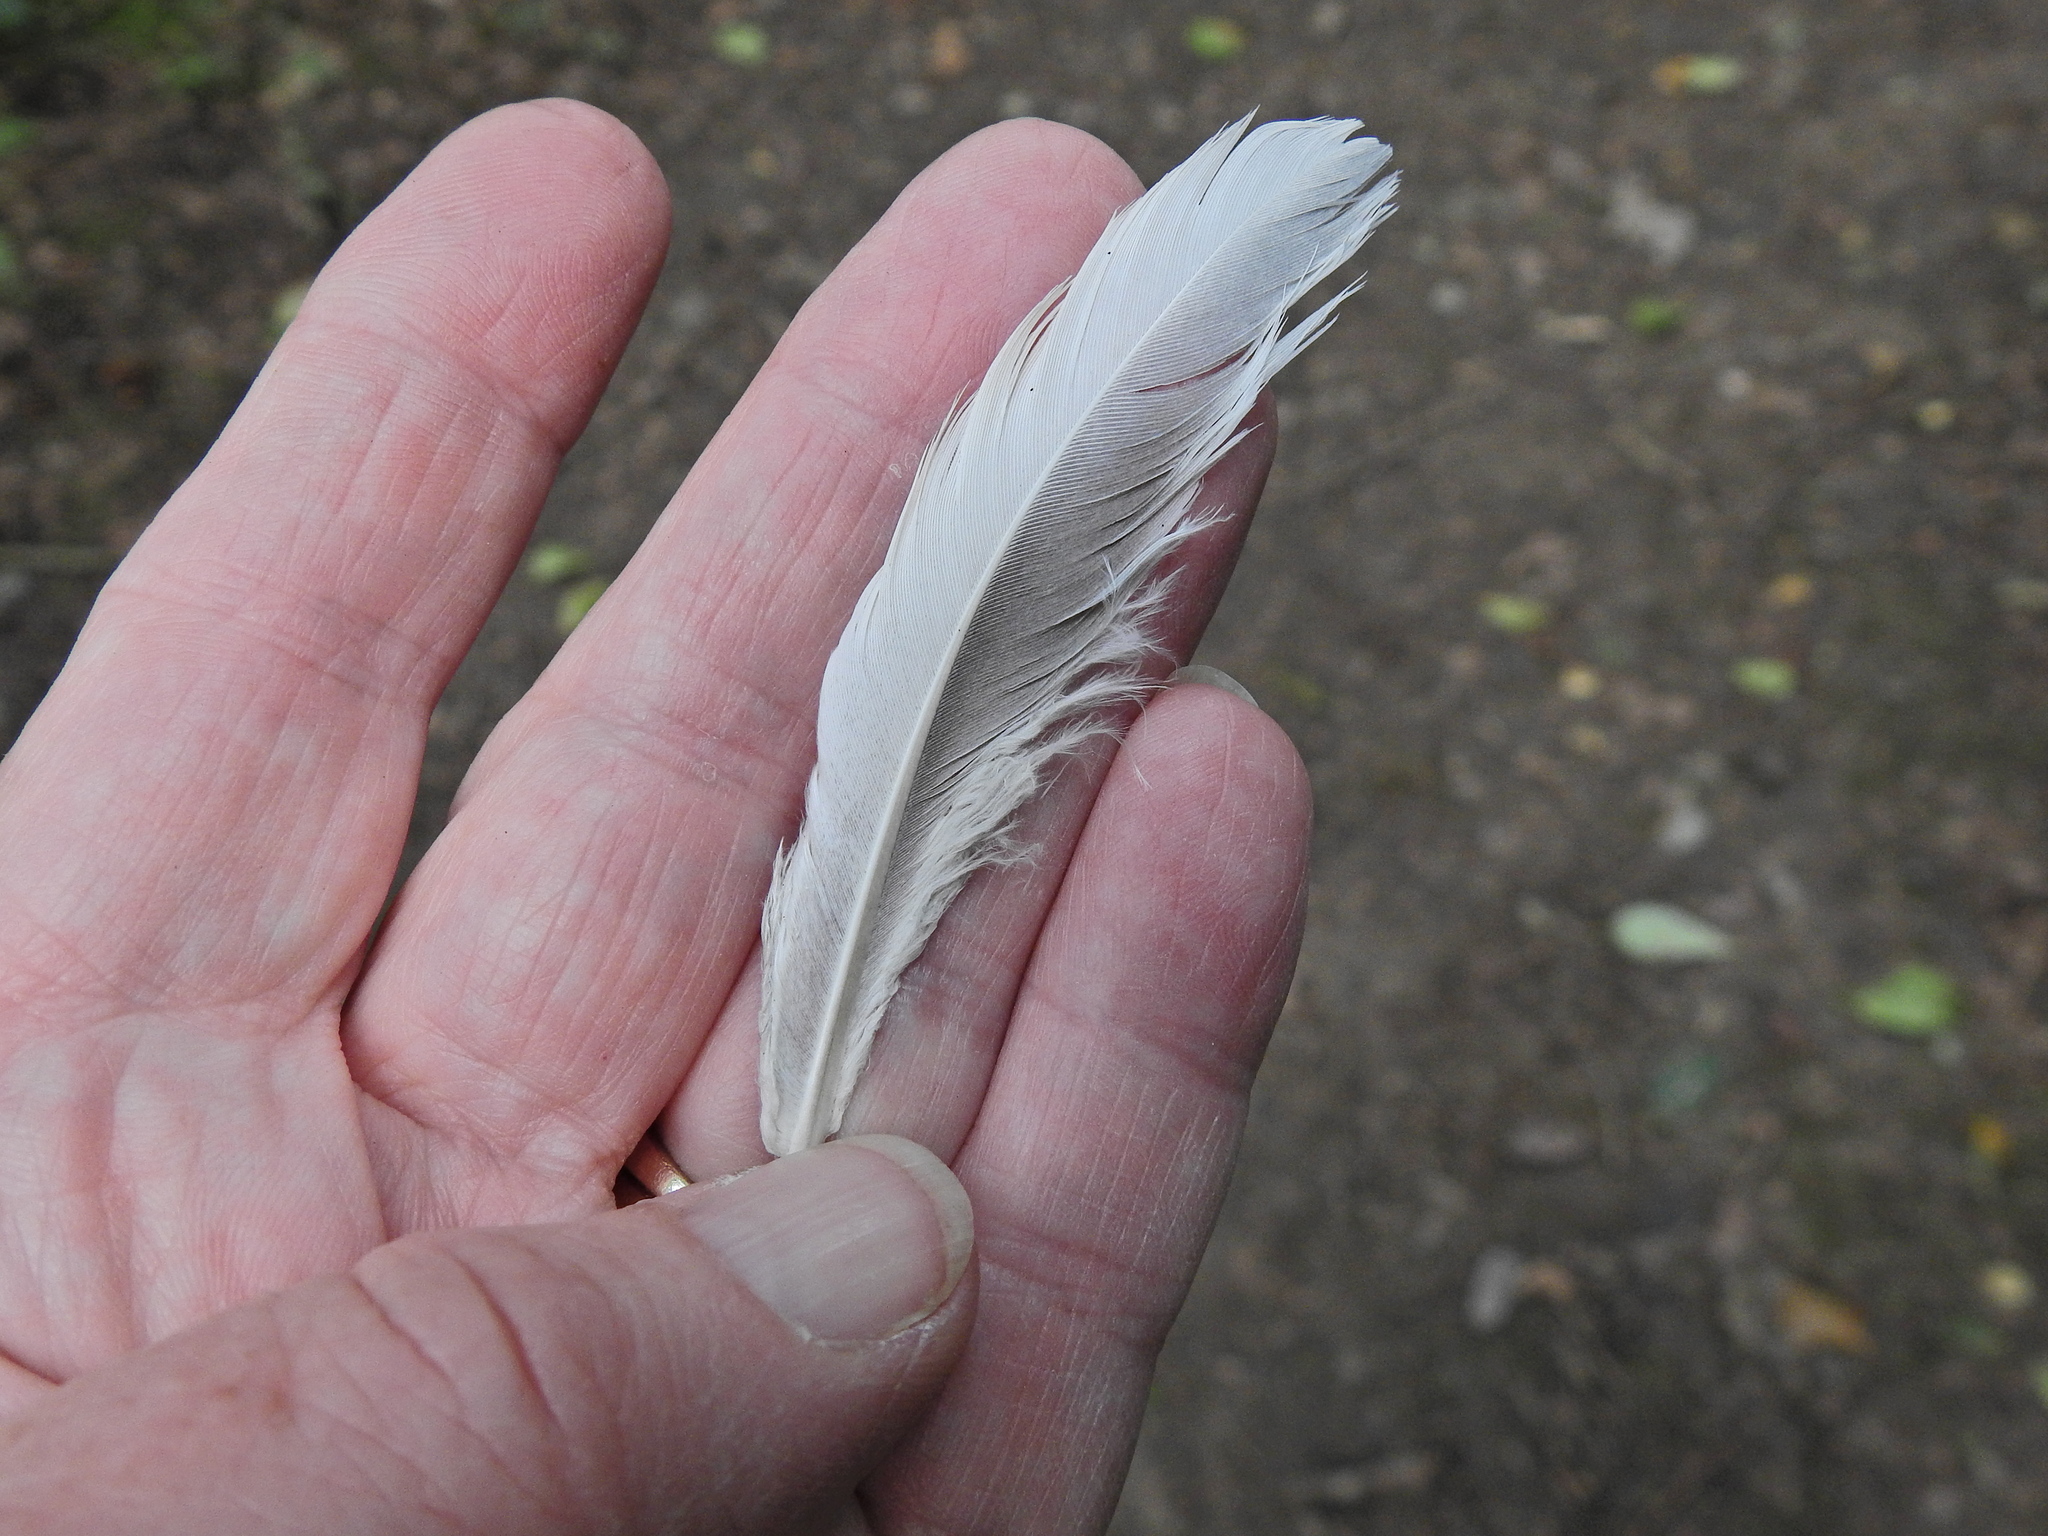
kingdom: Animalia
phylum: Chordata
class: Aves
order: Columbiformes
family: Columbidae
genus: Columba
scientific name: Columba palumbus
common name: Common wood pigeon
